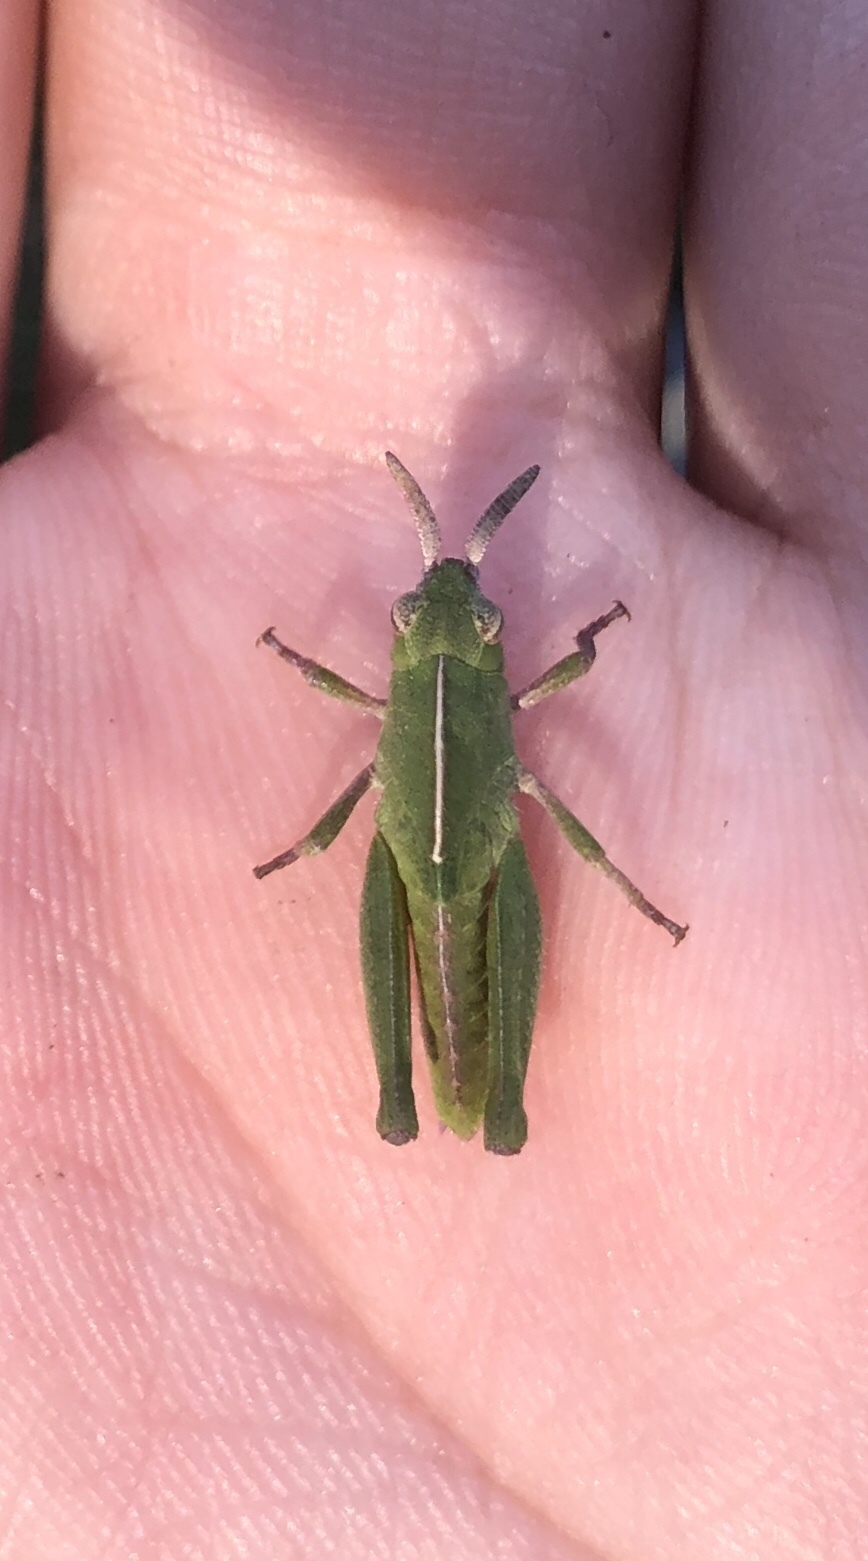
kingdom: Animalia
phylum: Arthropoda
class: Insecta
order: Orthoptera
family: Acrididae
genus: Chortophaga
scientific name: Chortophaga viridifasciata
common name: Green-striped grasshopper
